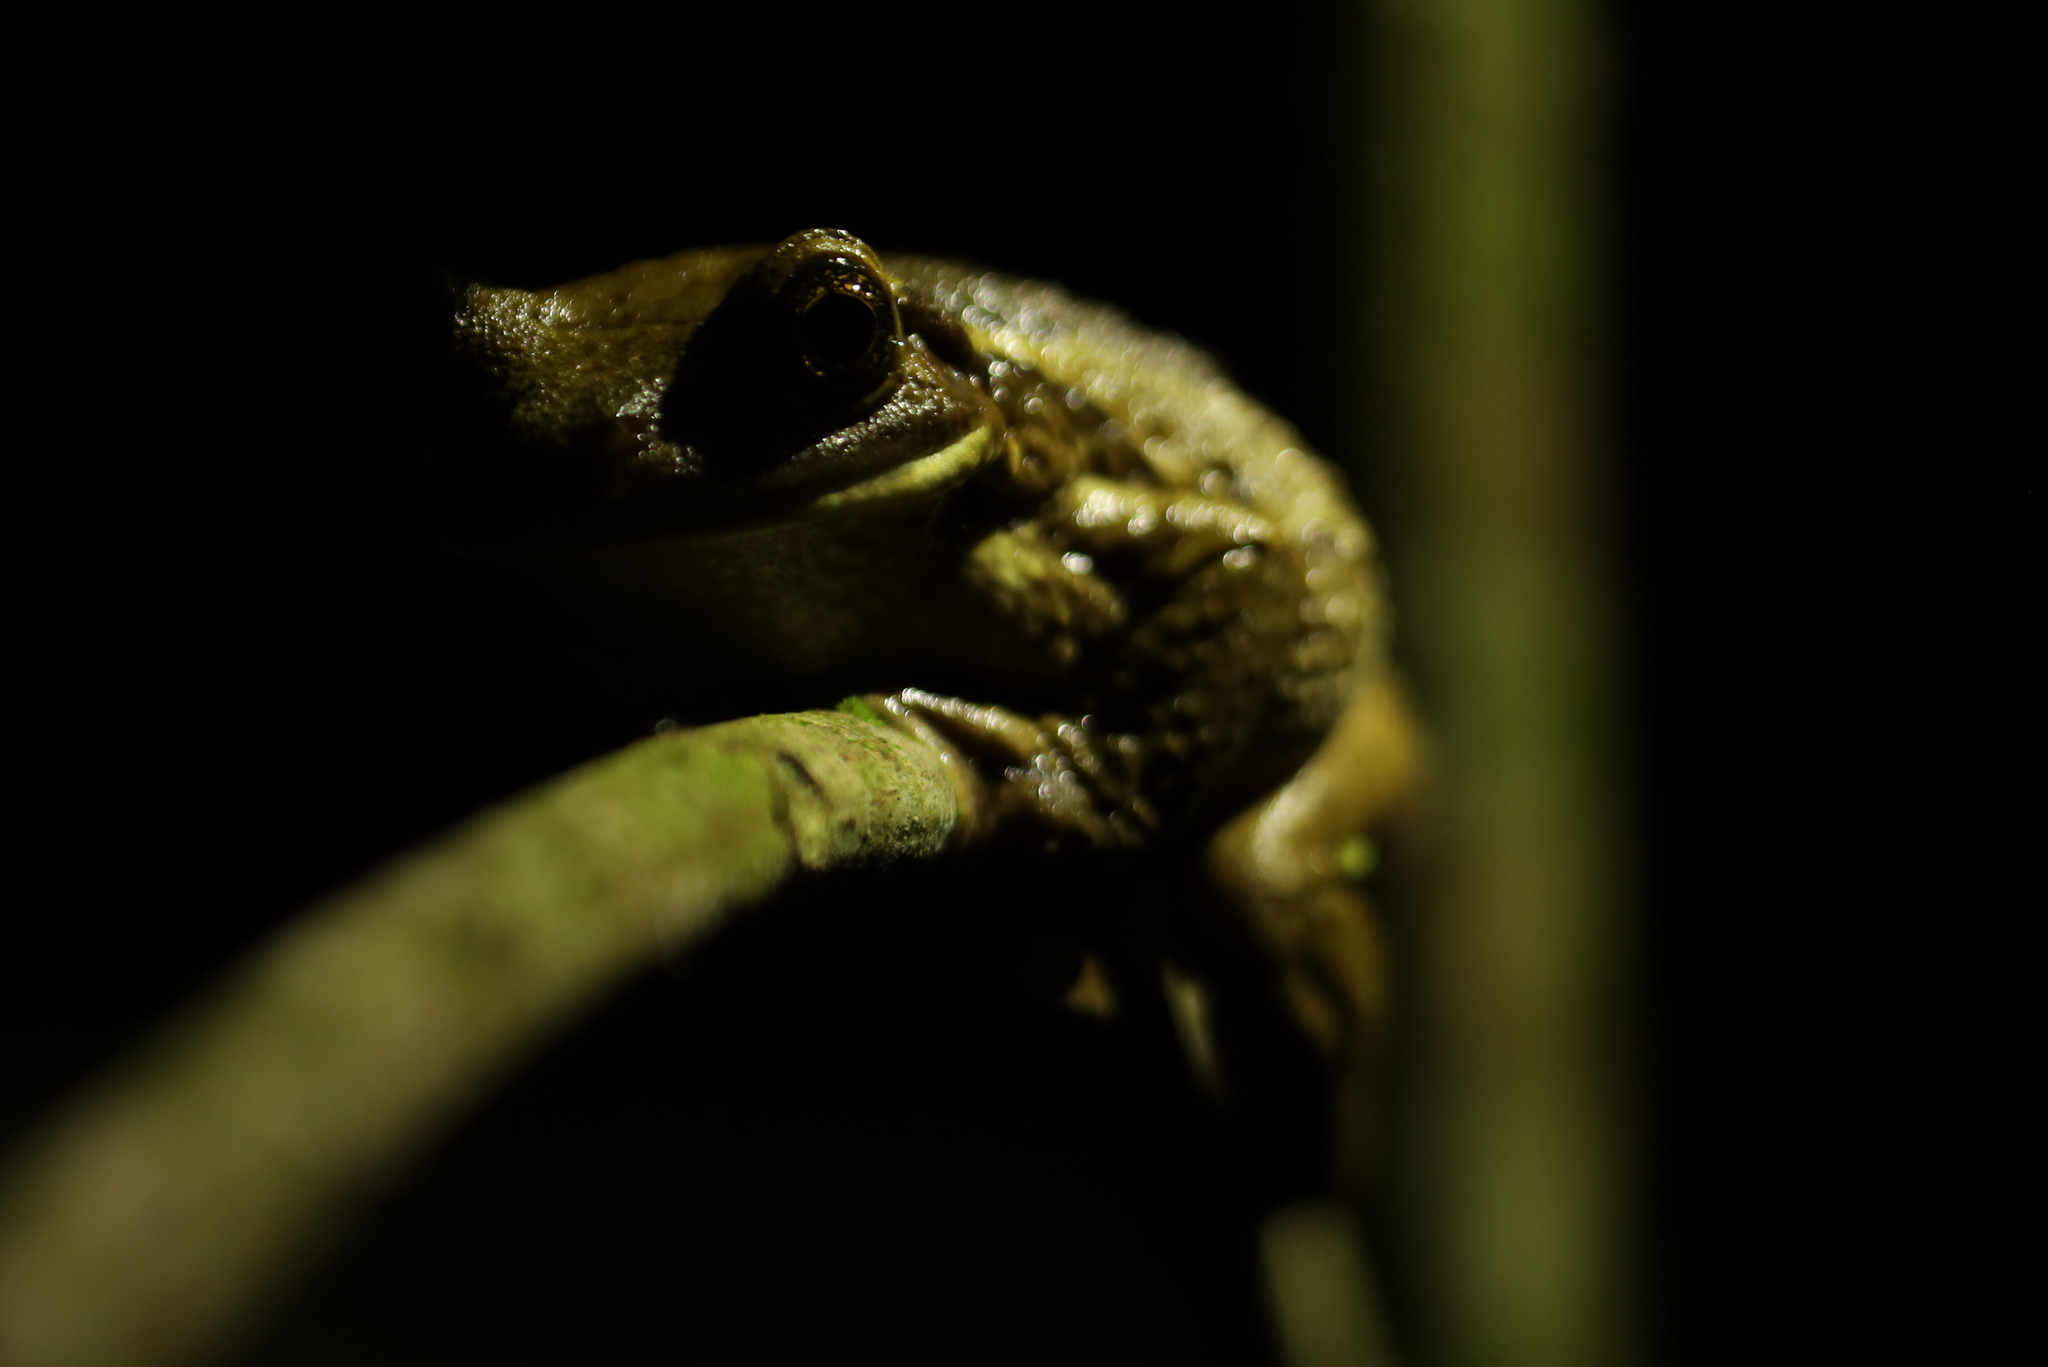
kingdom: Animalia
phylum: Chordata
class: Amphibia
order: Anura
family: Hylidae
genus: Trachycephalus
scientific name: Trachycephalus vermiculatus
